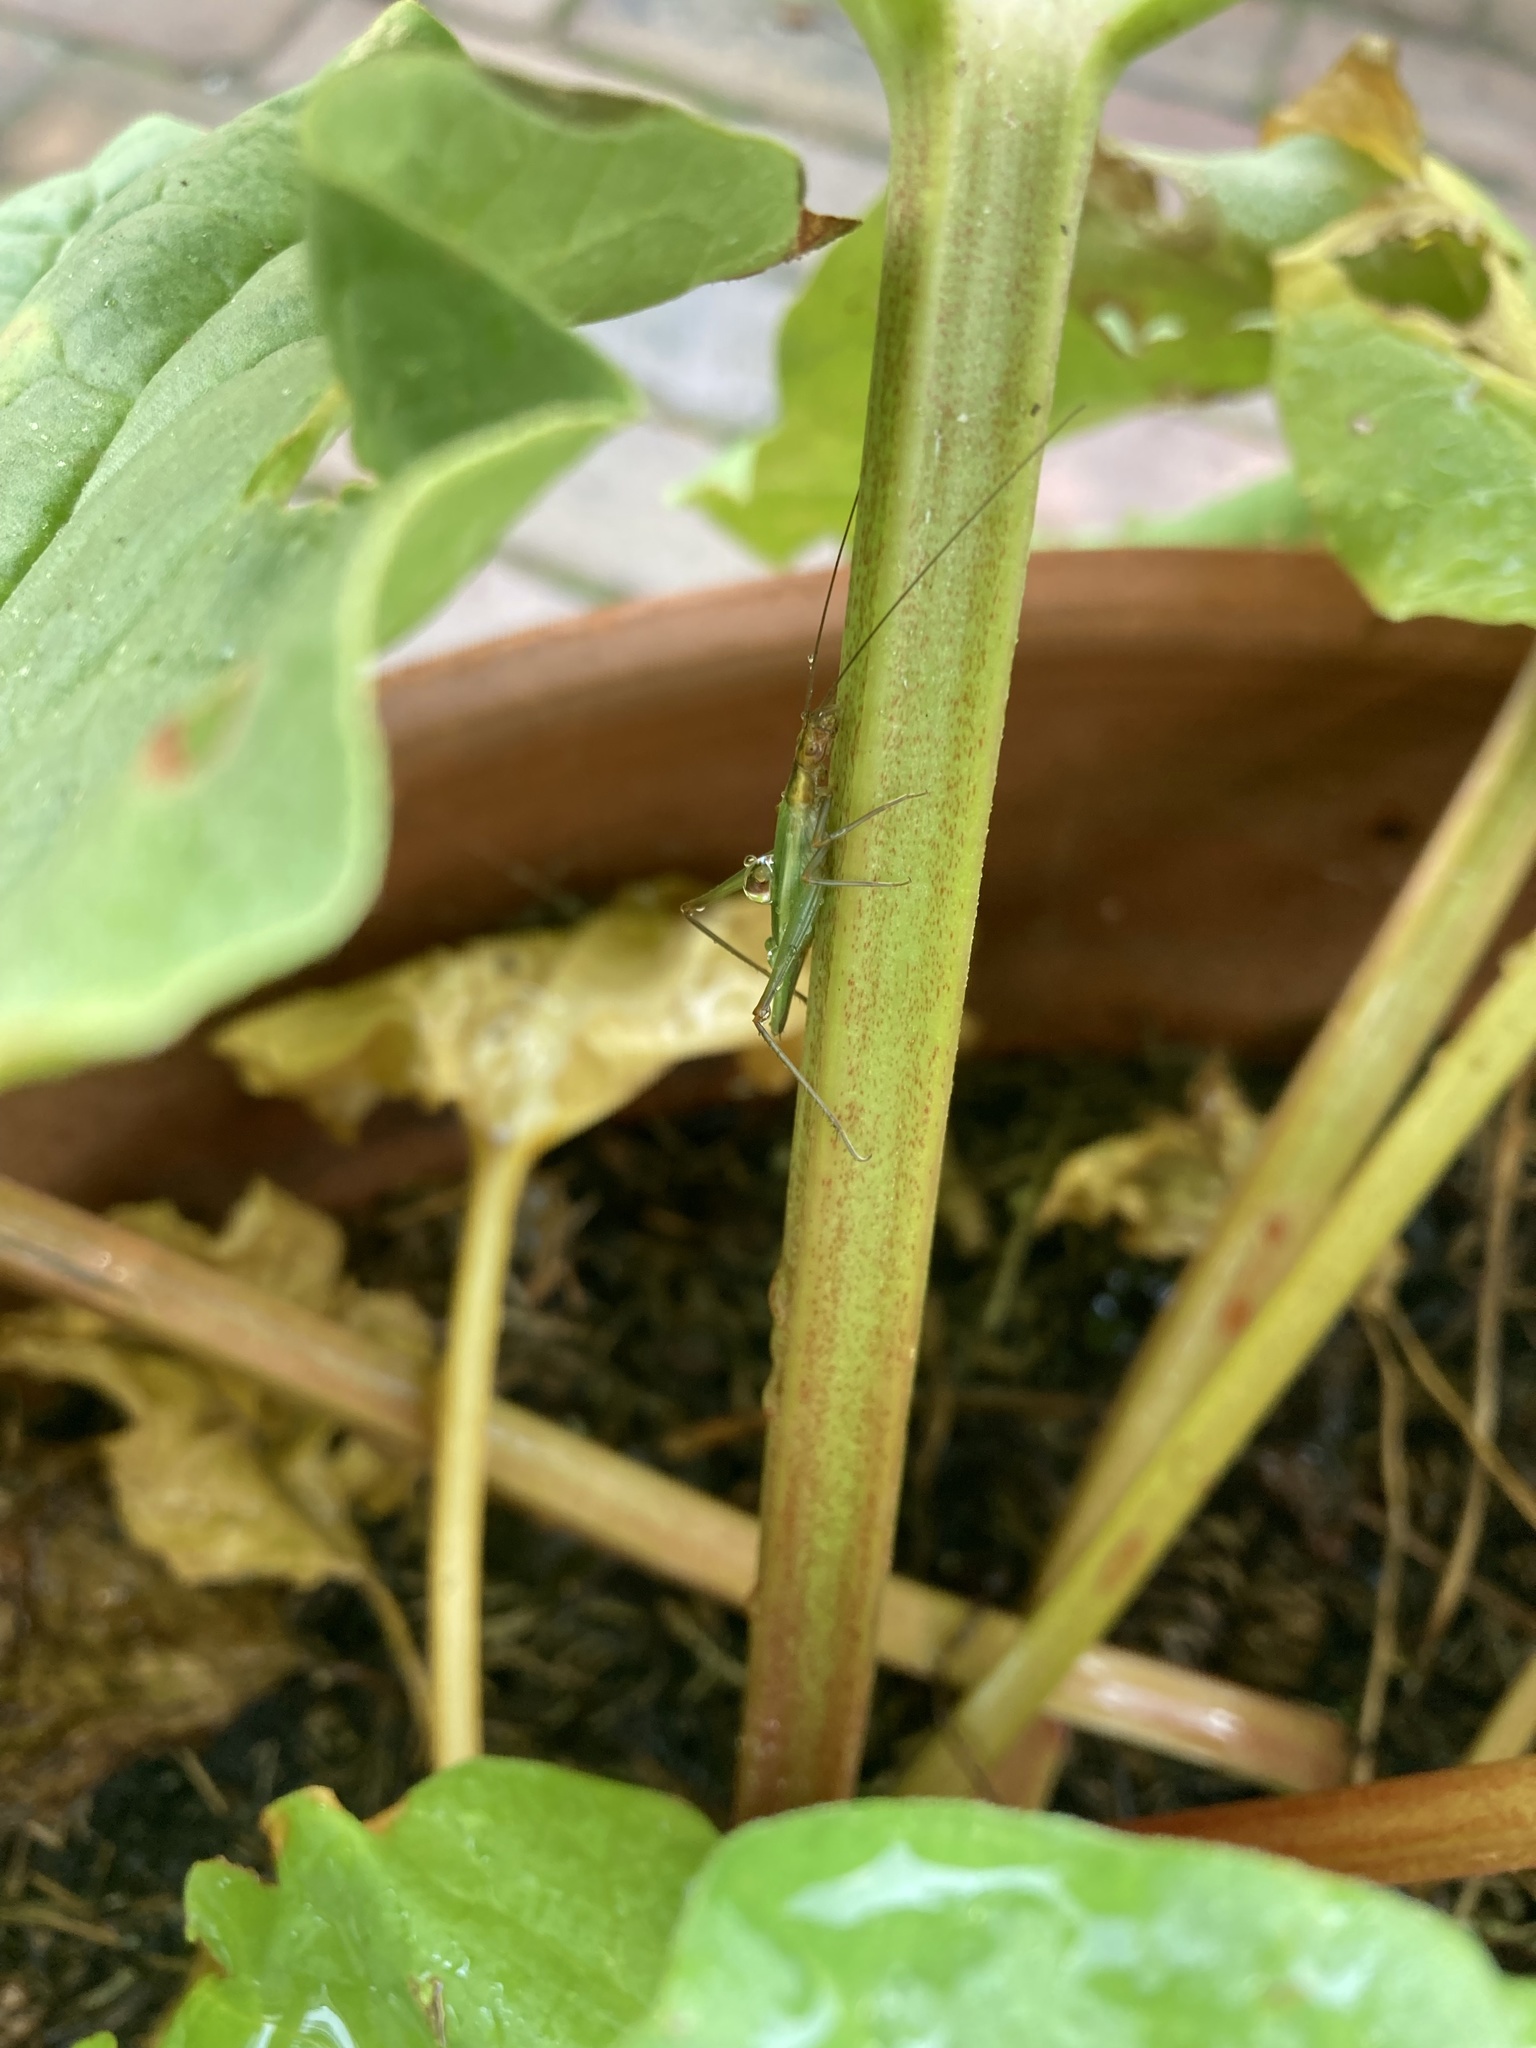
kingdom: Animalia
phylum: Arthropoda
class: Insecta
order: Orthoptera
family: Gryllidae
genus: Oecanthus
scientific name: Oecanthus pini
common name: Pine tree cricket
